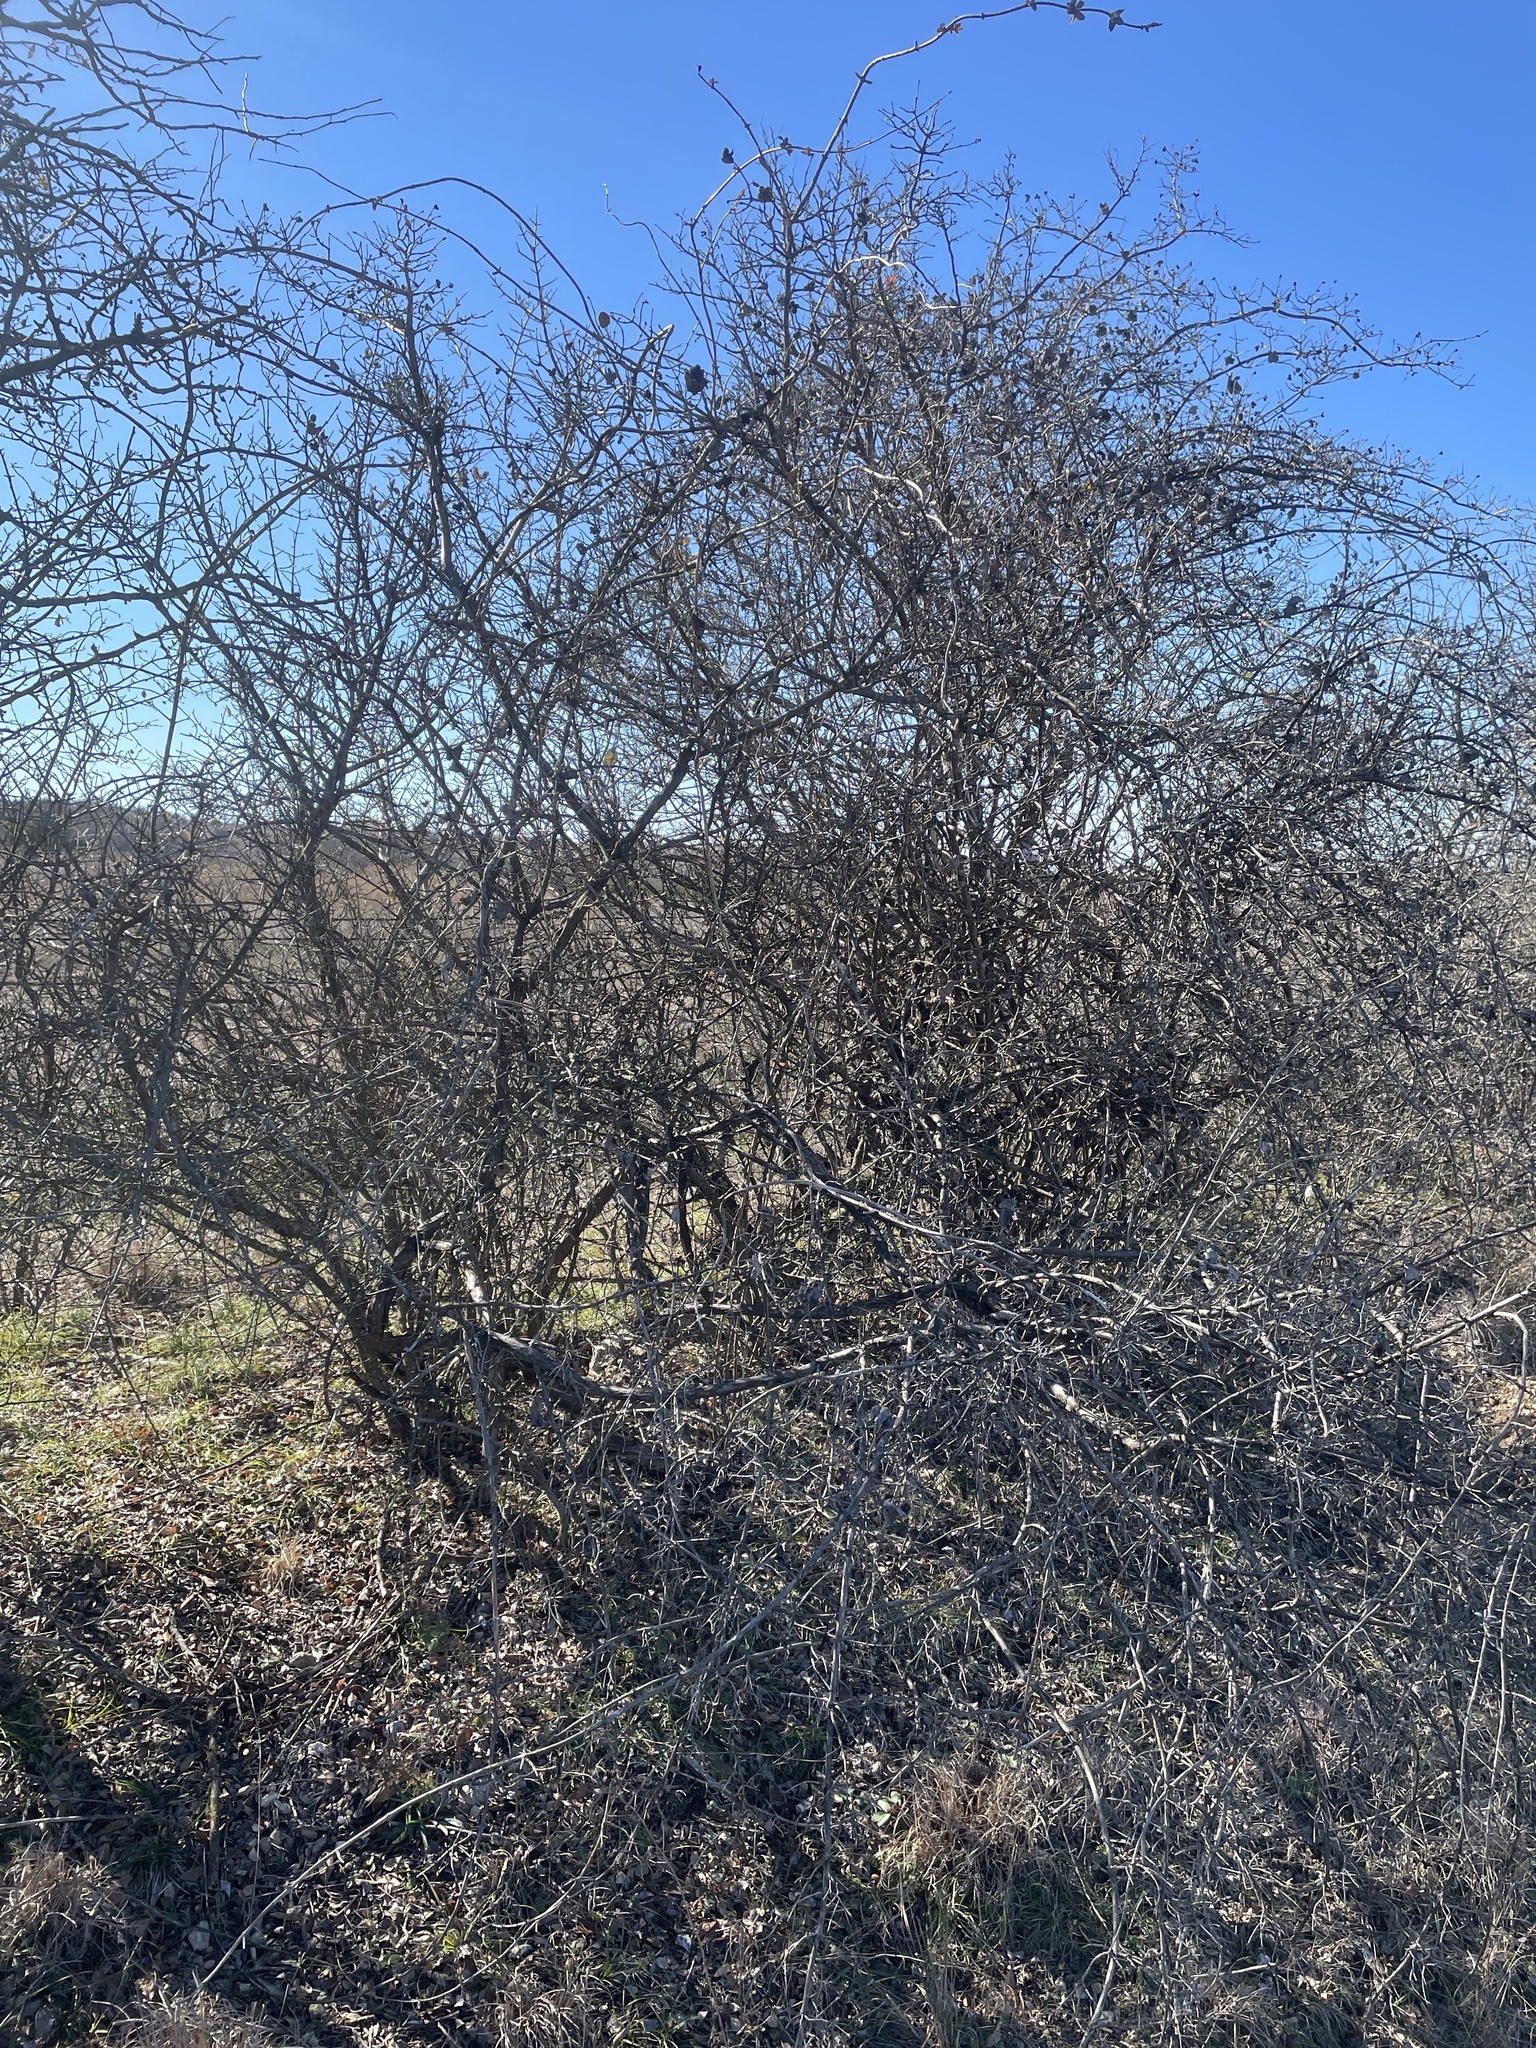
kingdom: Plantae
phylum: Tracheophyta
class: Magnoliopsida
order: Dipsacales
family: Caprifoliaceae
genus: Lonicera
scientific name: Lonicera albiflora
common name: White honeysuckle
